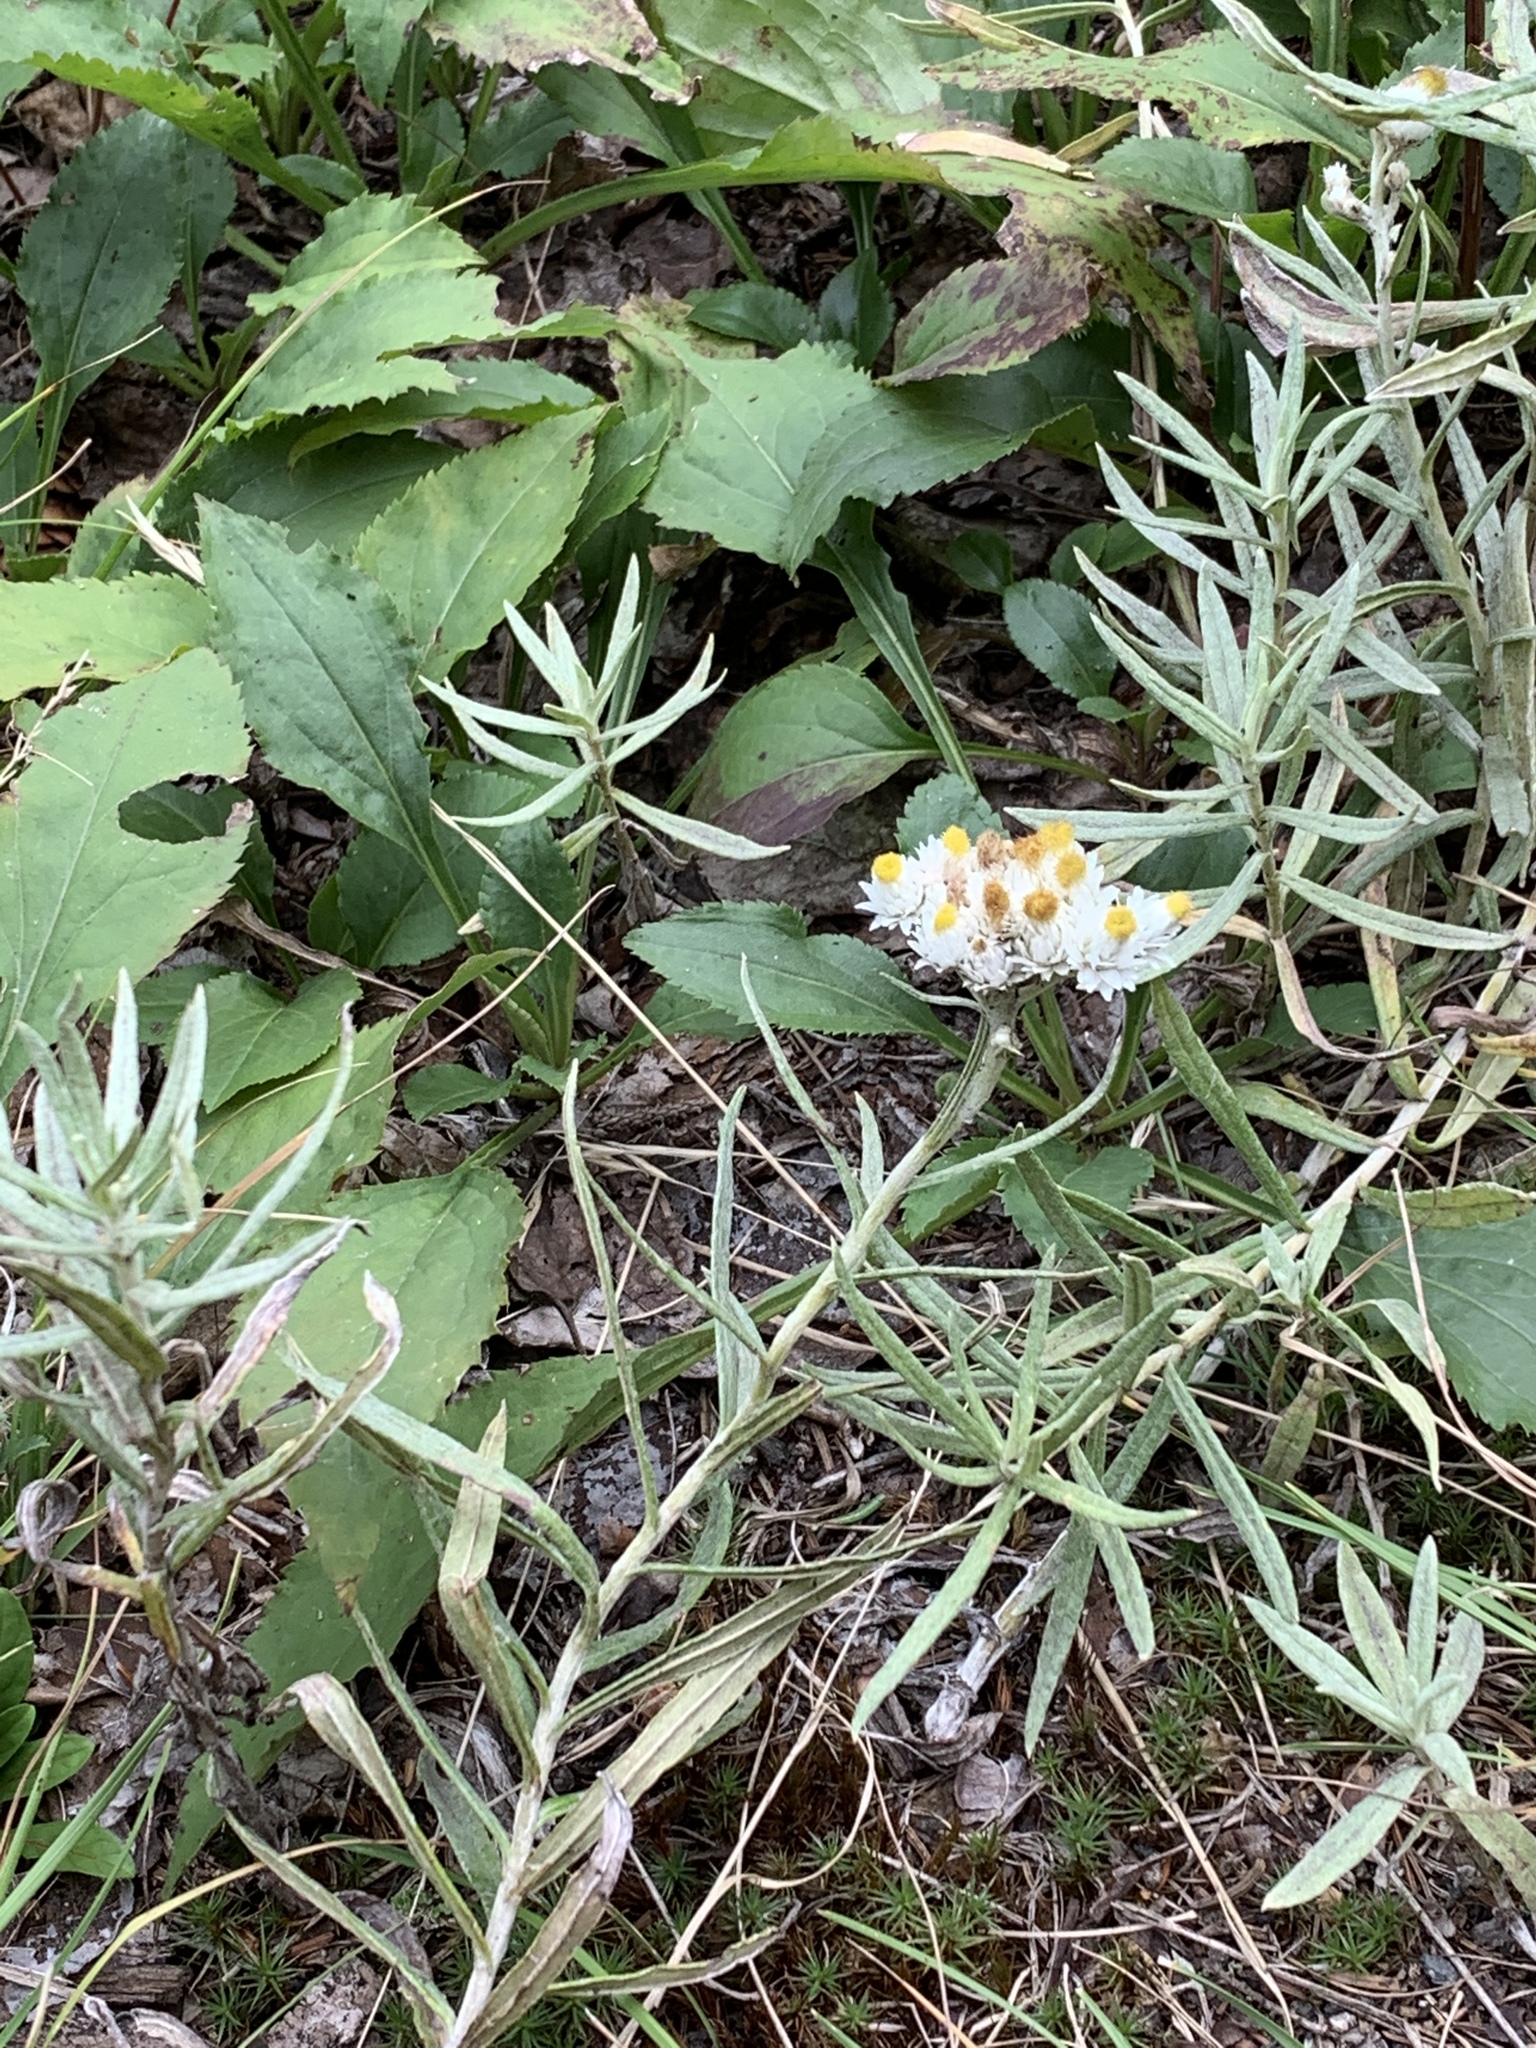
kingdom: Plantae
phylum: Tracheophyta
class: Magnoliopsida
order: Asterales
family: Asteraceae
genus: Anaphalis
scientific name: Anaphalis margaritacea
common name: Pearly everlasting
